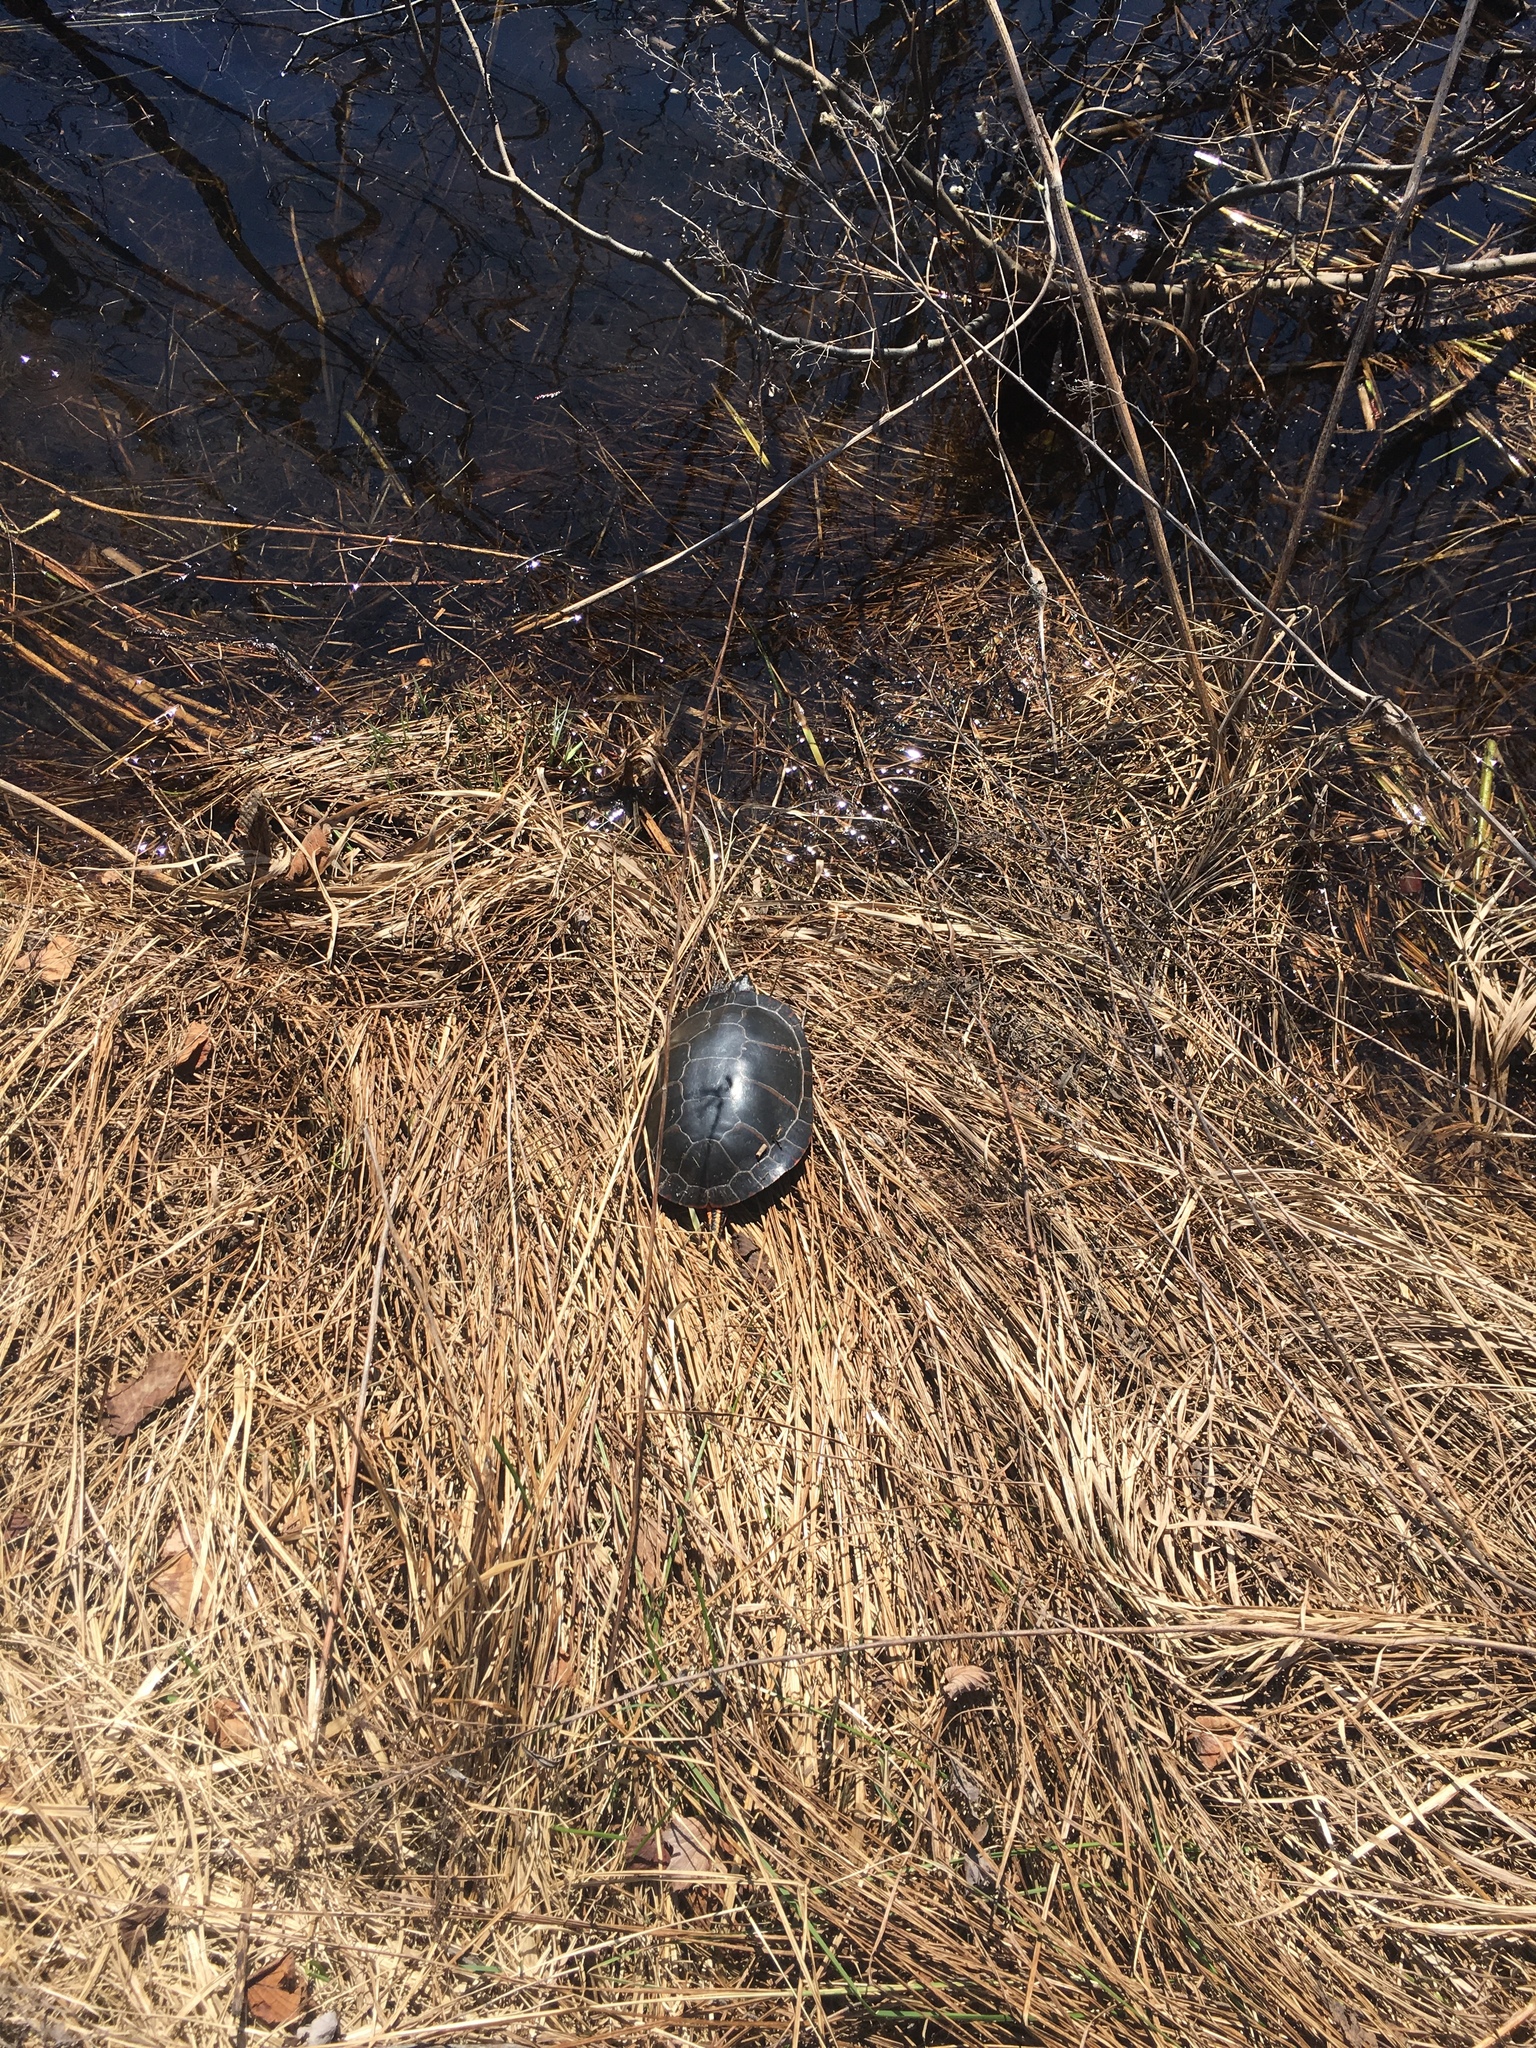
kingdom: Animalia
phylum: Chordata
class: Testudines
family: Emydidae
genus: Chrysemys
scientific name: Chrysemys picta
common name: Painted turtle
